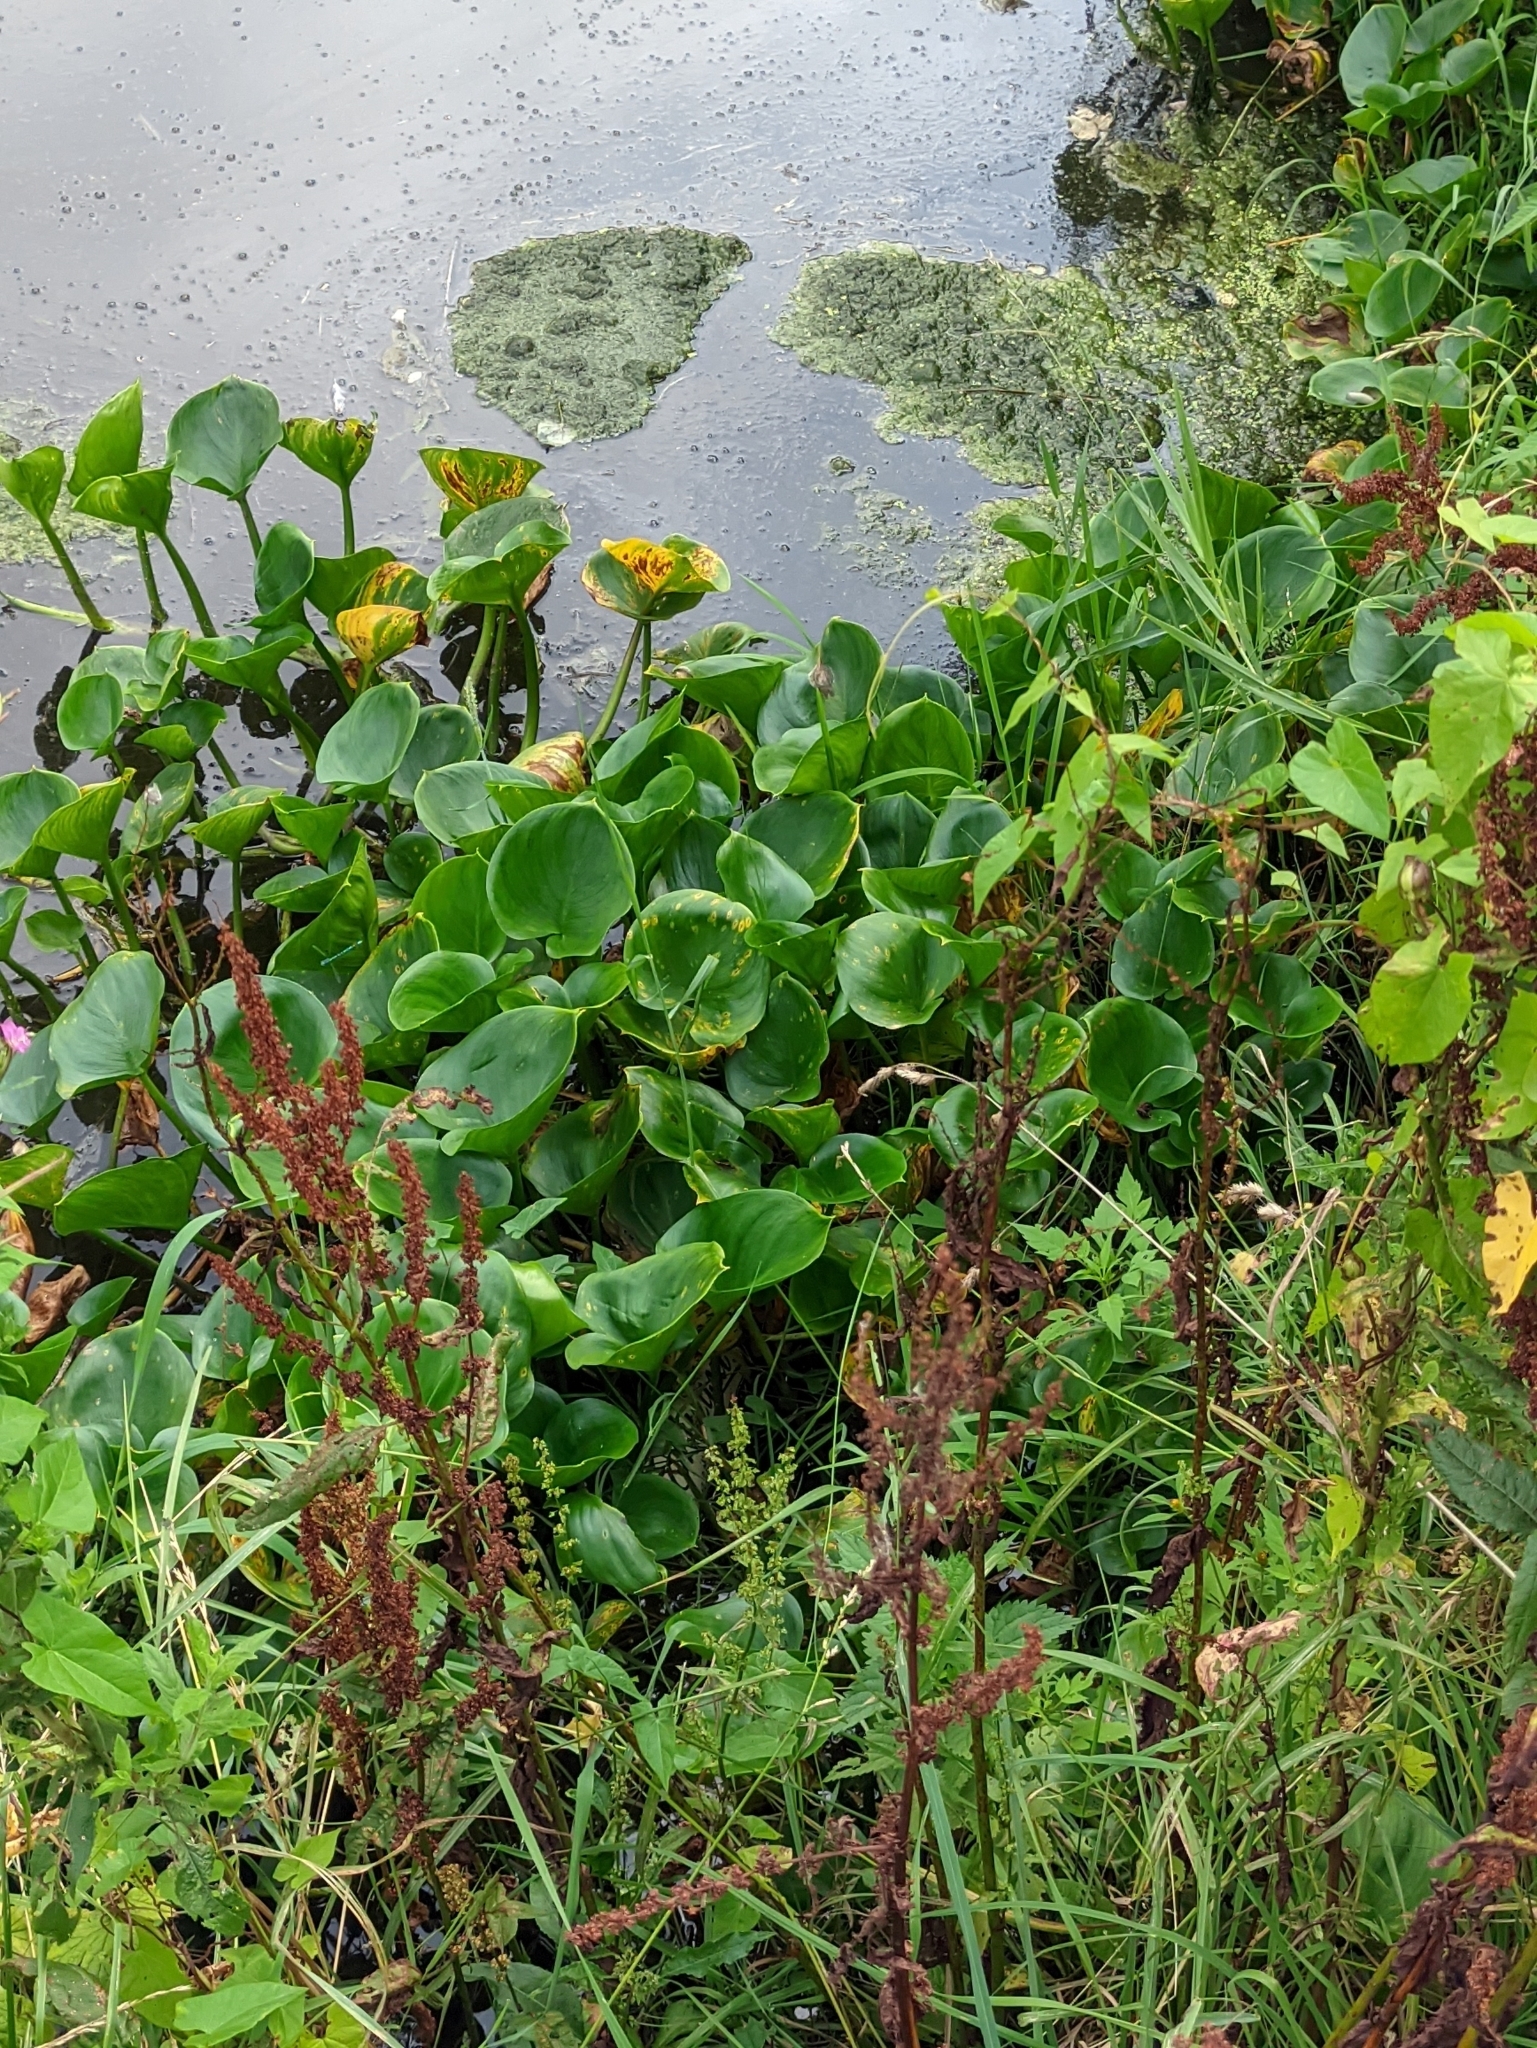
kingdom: Plantae
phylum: Tracheophyta
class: Liliopsida
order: Alismatales
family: Araceae
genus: Calla
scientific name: Calla palustris
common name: Bog arum
